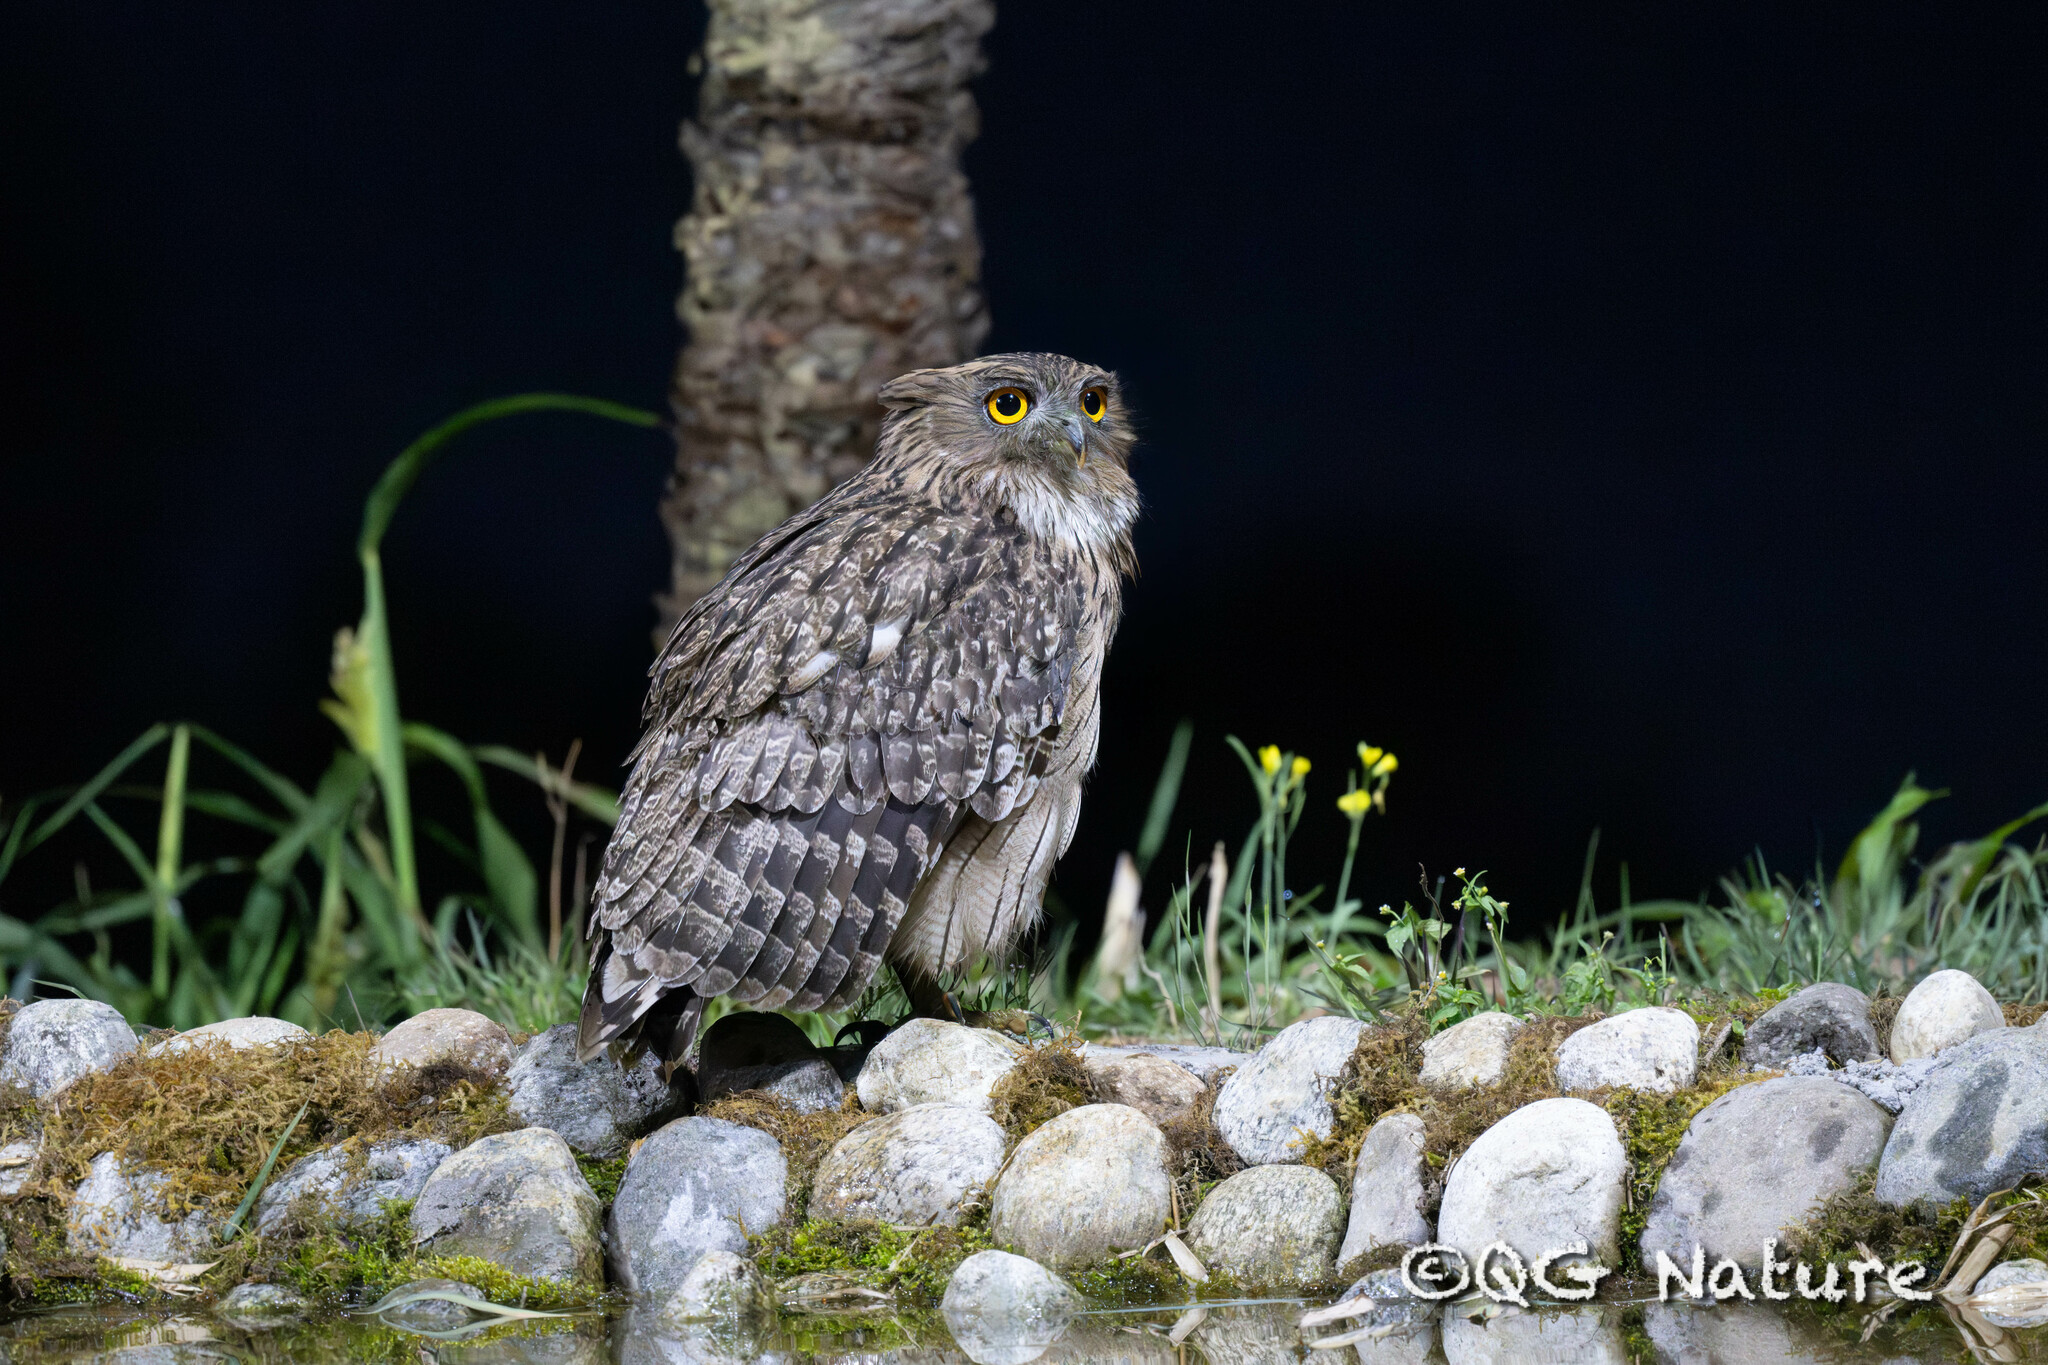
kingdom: Animalia
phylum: Chordata
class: Aves
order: Strigiformes
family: Strigidae
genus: Ketupa
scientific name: Ketupa zeylonensis
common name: Brown fish owl
